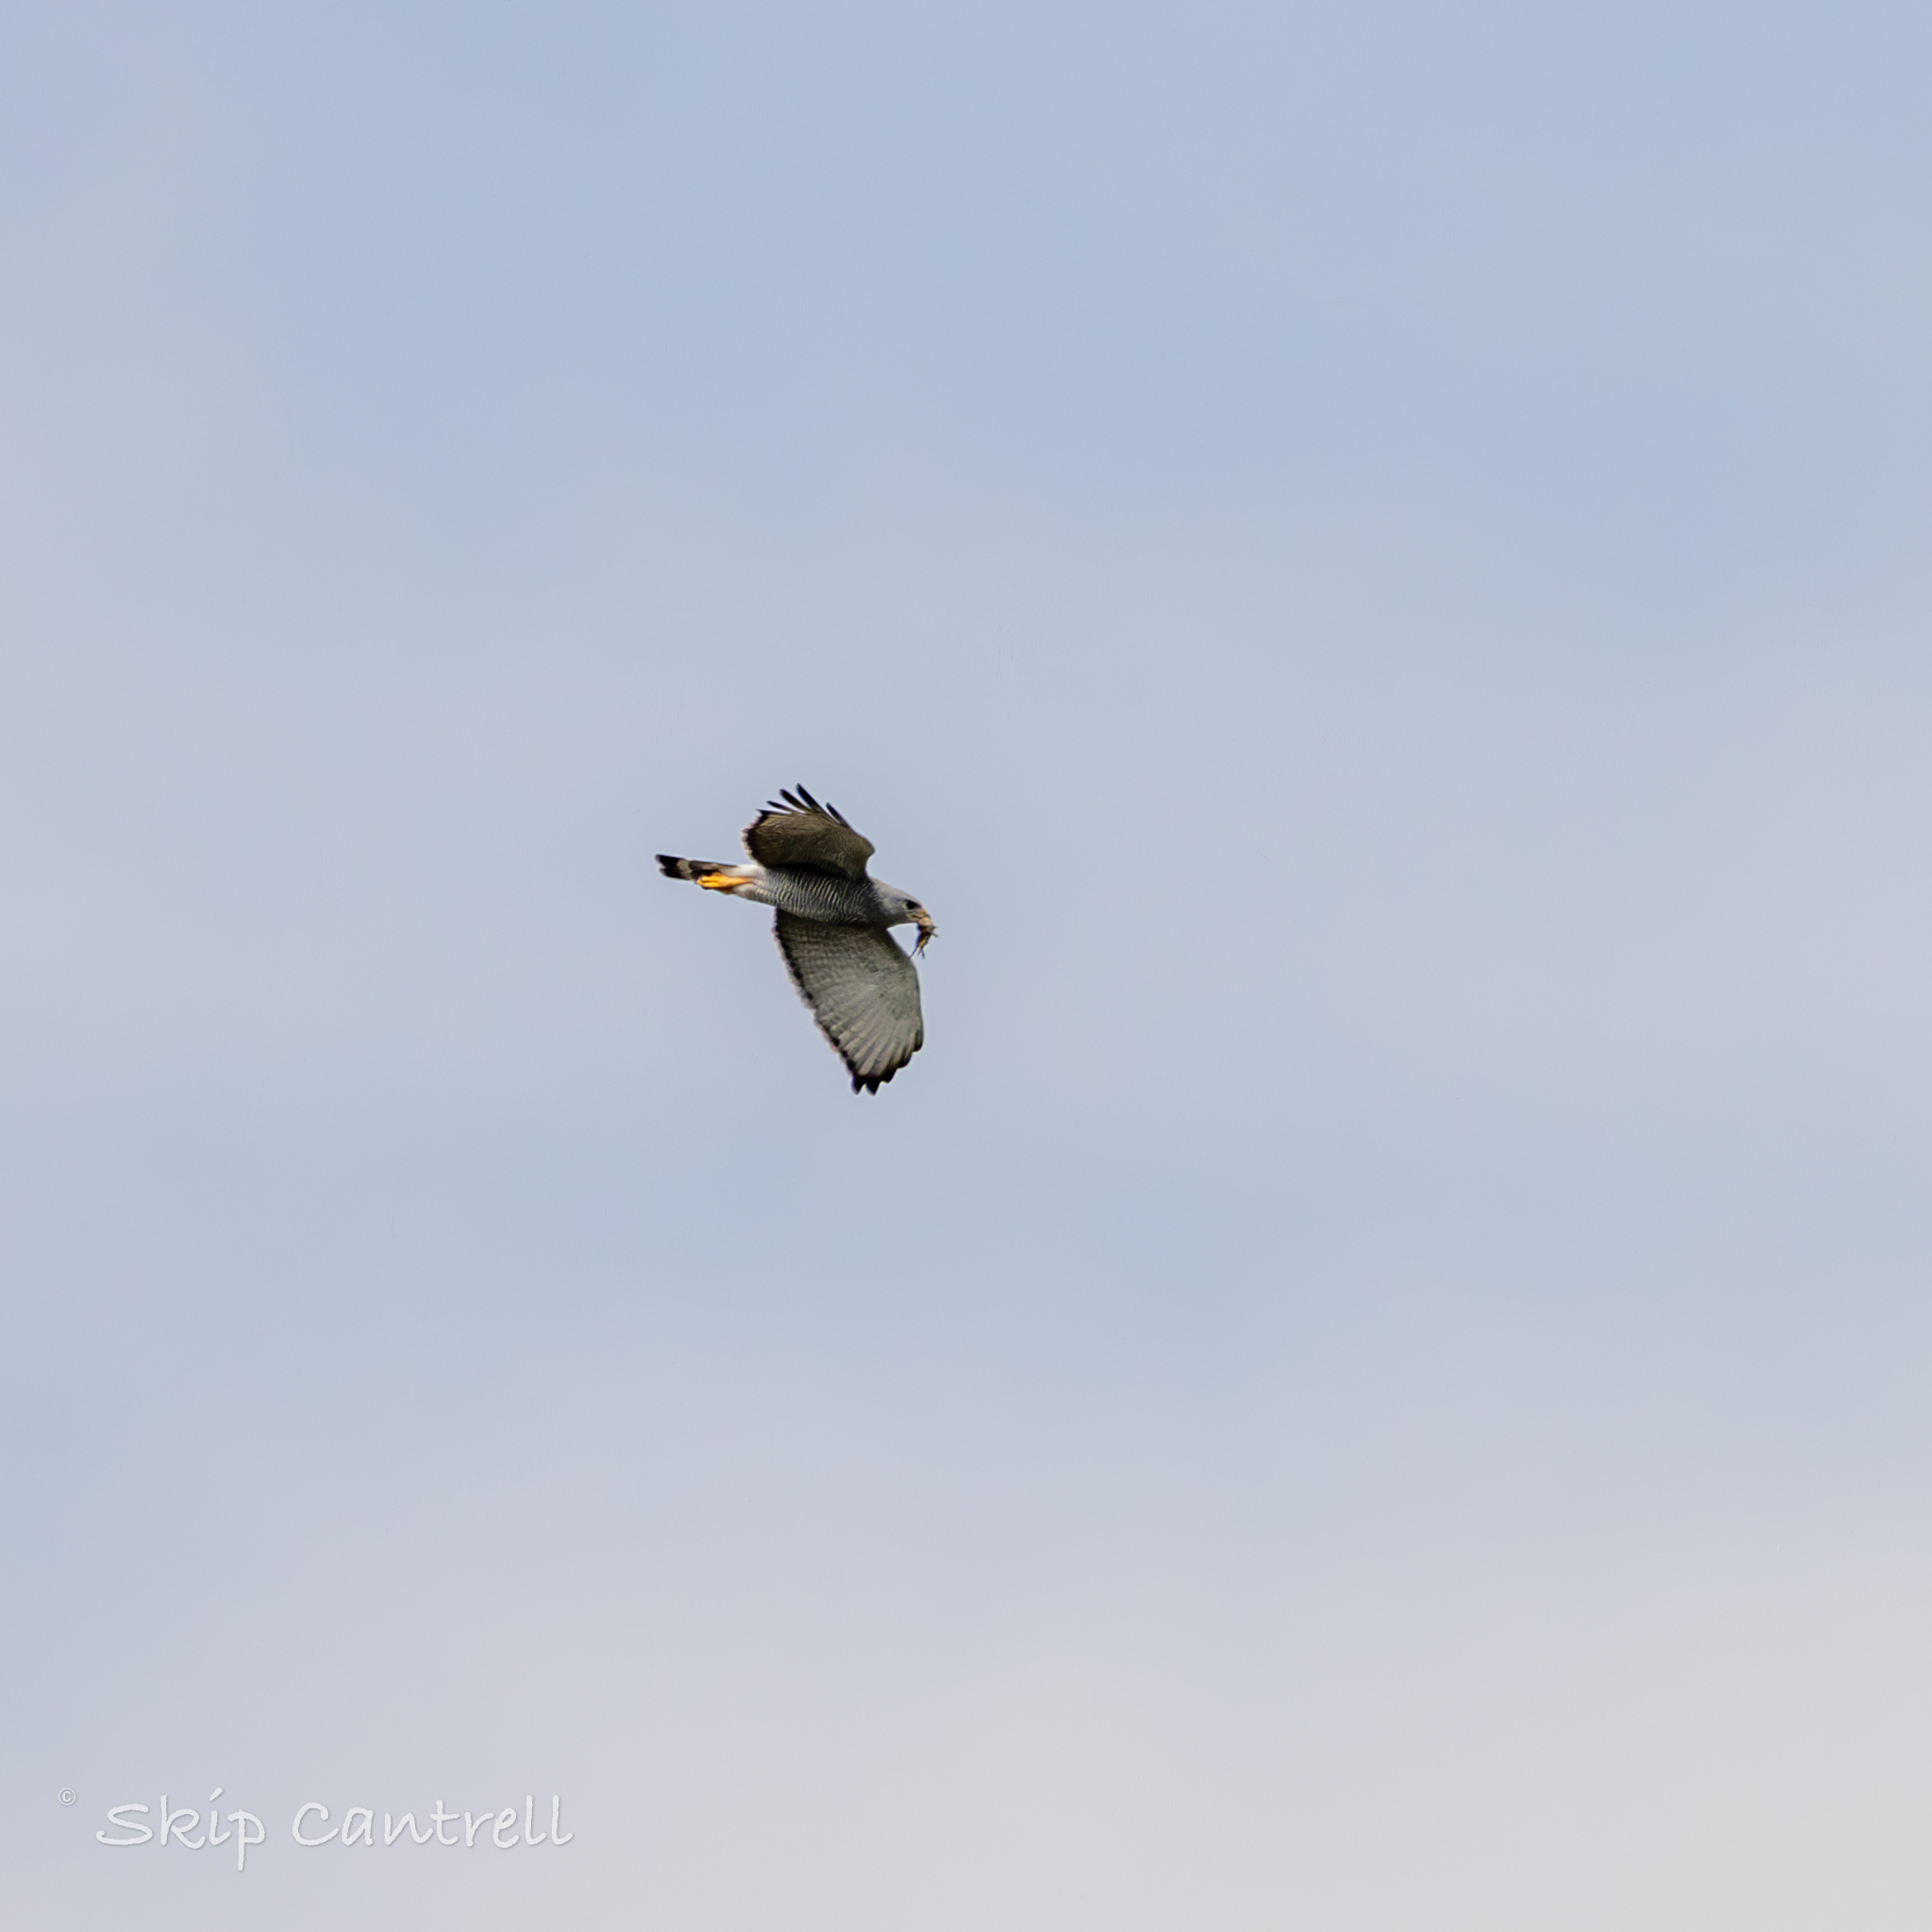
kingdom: Animalia
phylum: Chordata
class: Aves
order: Accipitriformes
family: Accipitridae
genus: Buteo
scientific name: Buteo nitidus
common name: Grey-lined hawk
